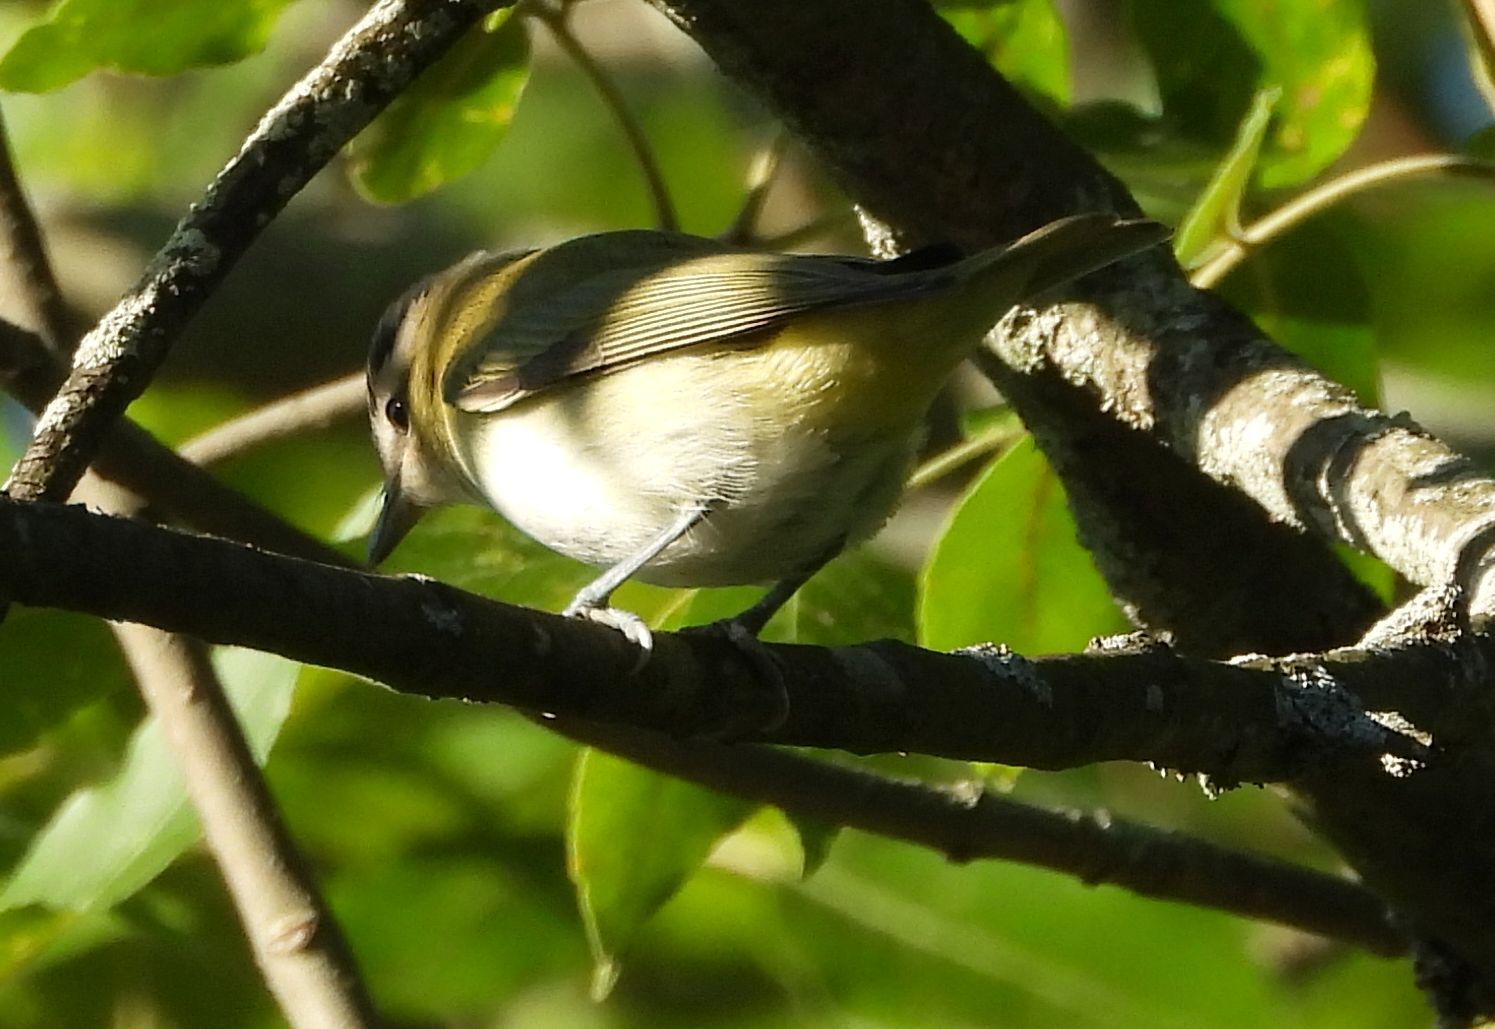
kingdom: Animalia
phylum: Chordata
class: Aves
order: Passeriformes
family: Vireonidae
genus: Vireo
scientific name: Vireo olivaceus
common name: Red-eyed vireo
